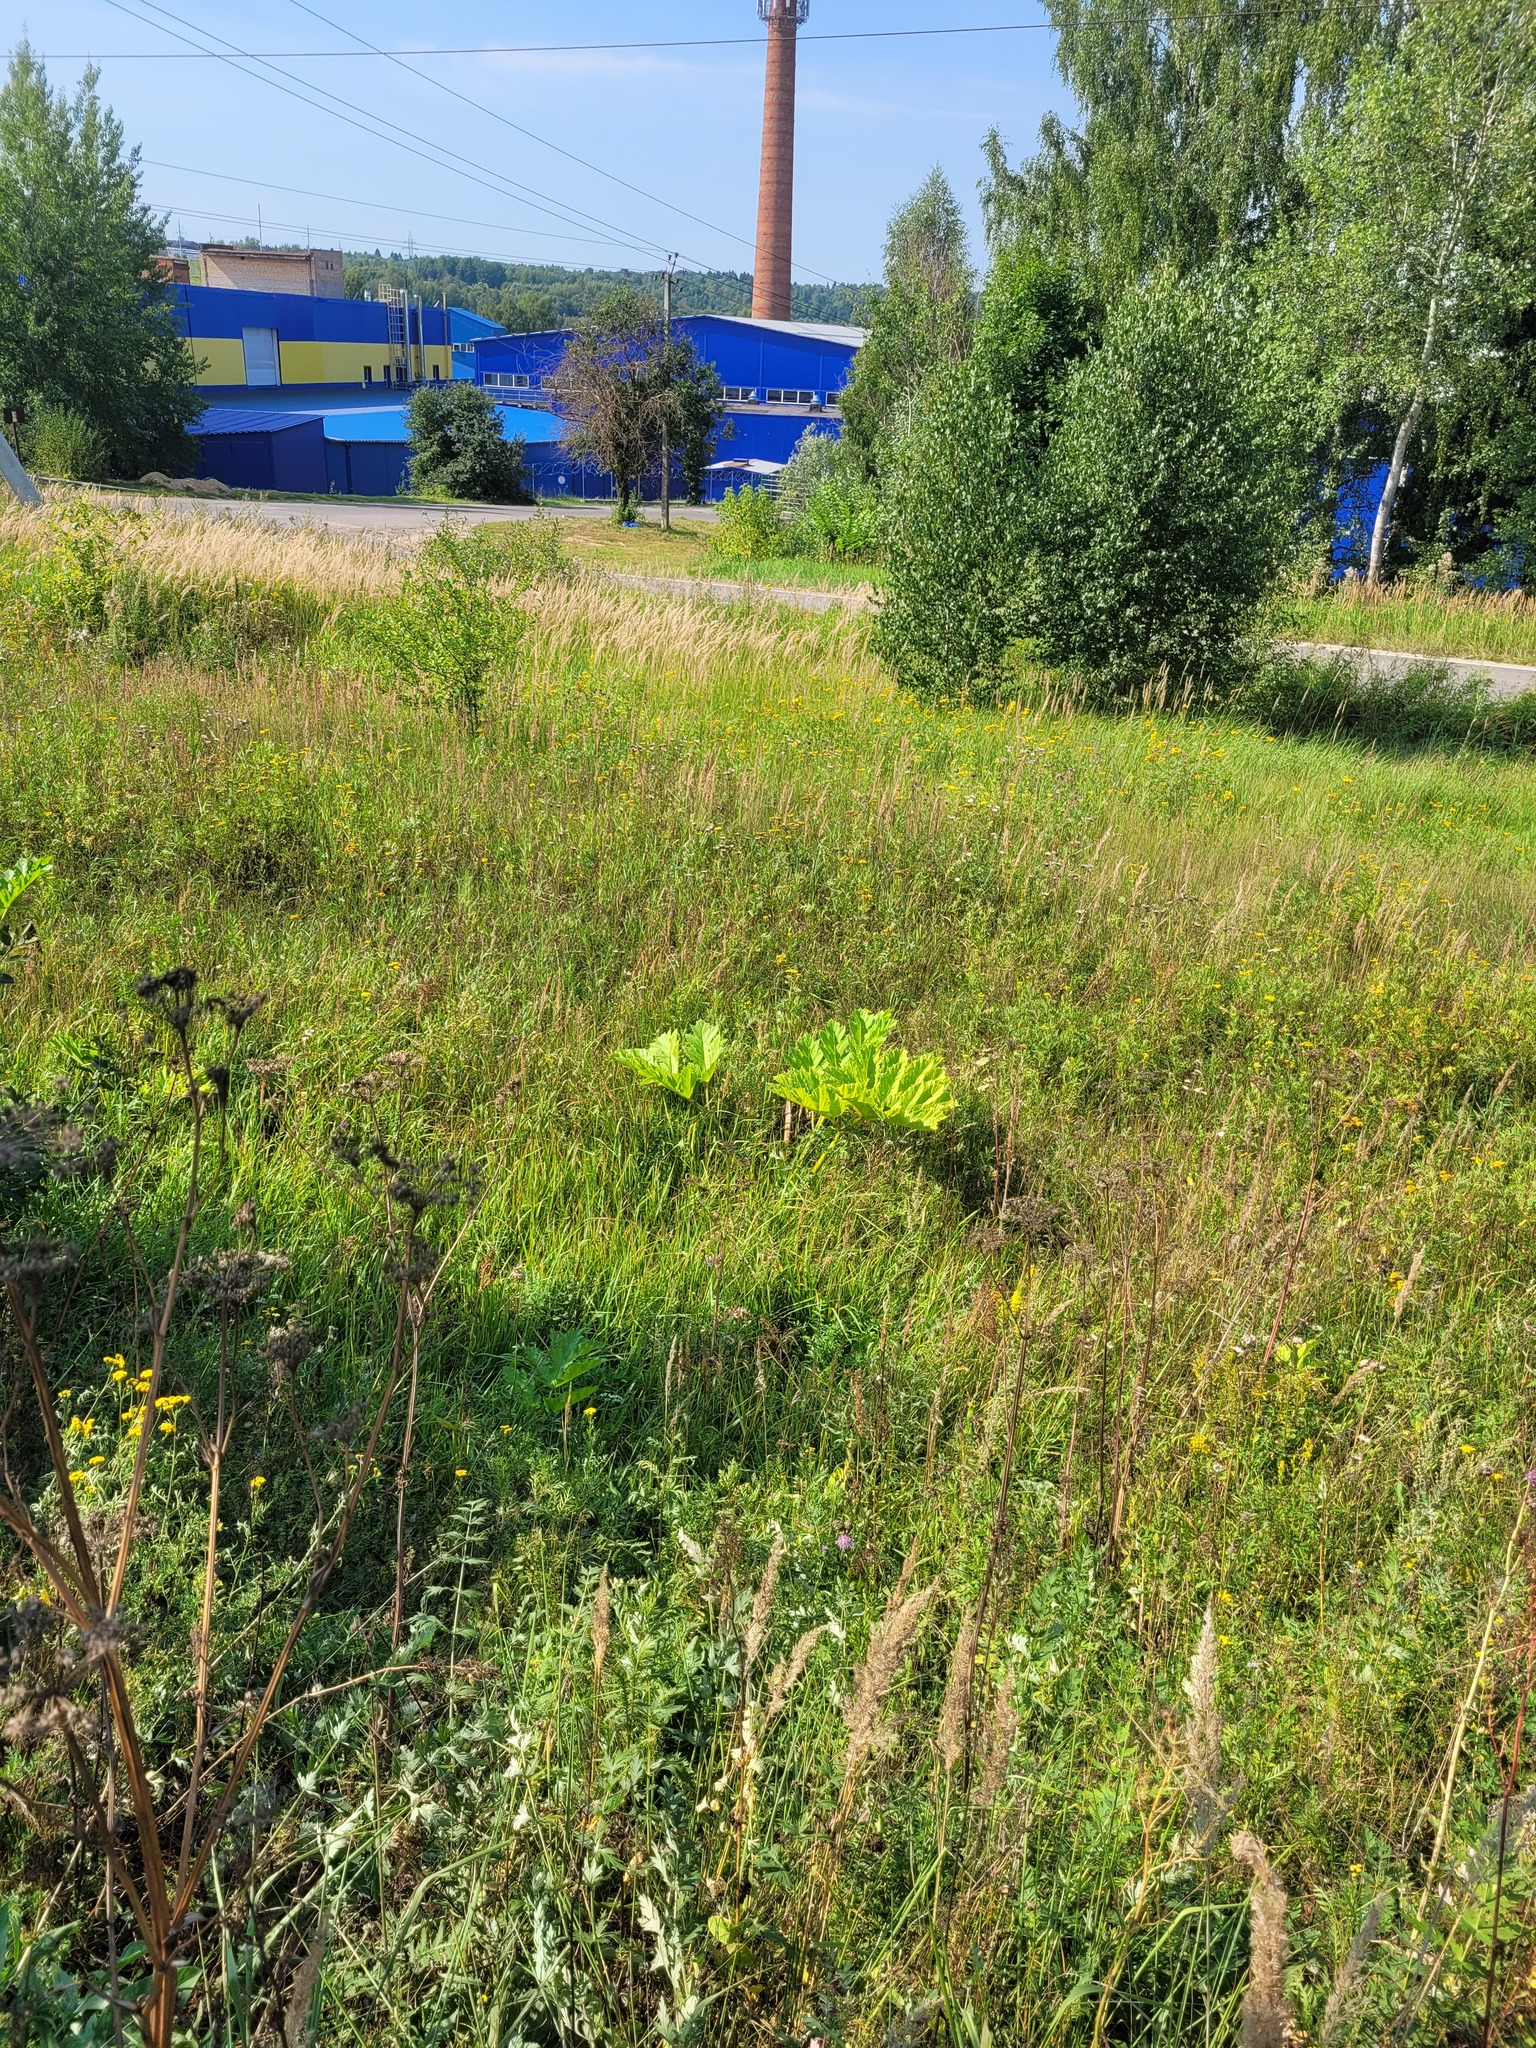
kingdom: Plantae
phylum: Tracheophyta
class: Magnoliopsida
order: Apiales
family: Apiaceae
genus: Heracleum
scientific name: Heracleum sosnowskyi
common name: Sosnowsky's hogweed
